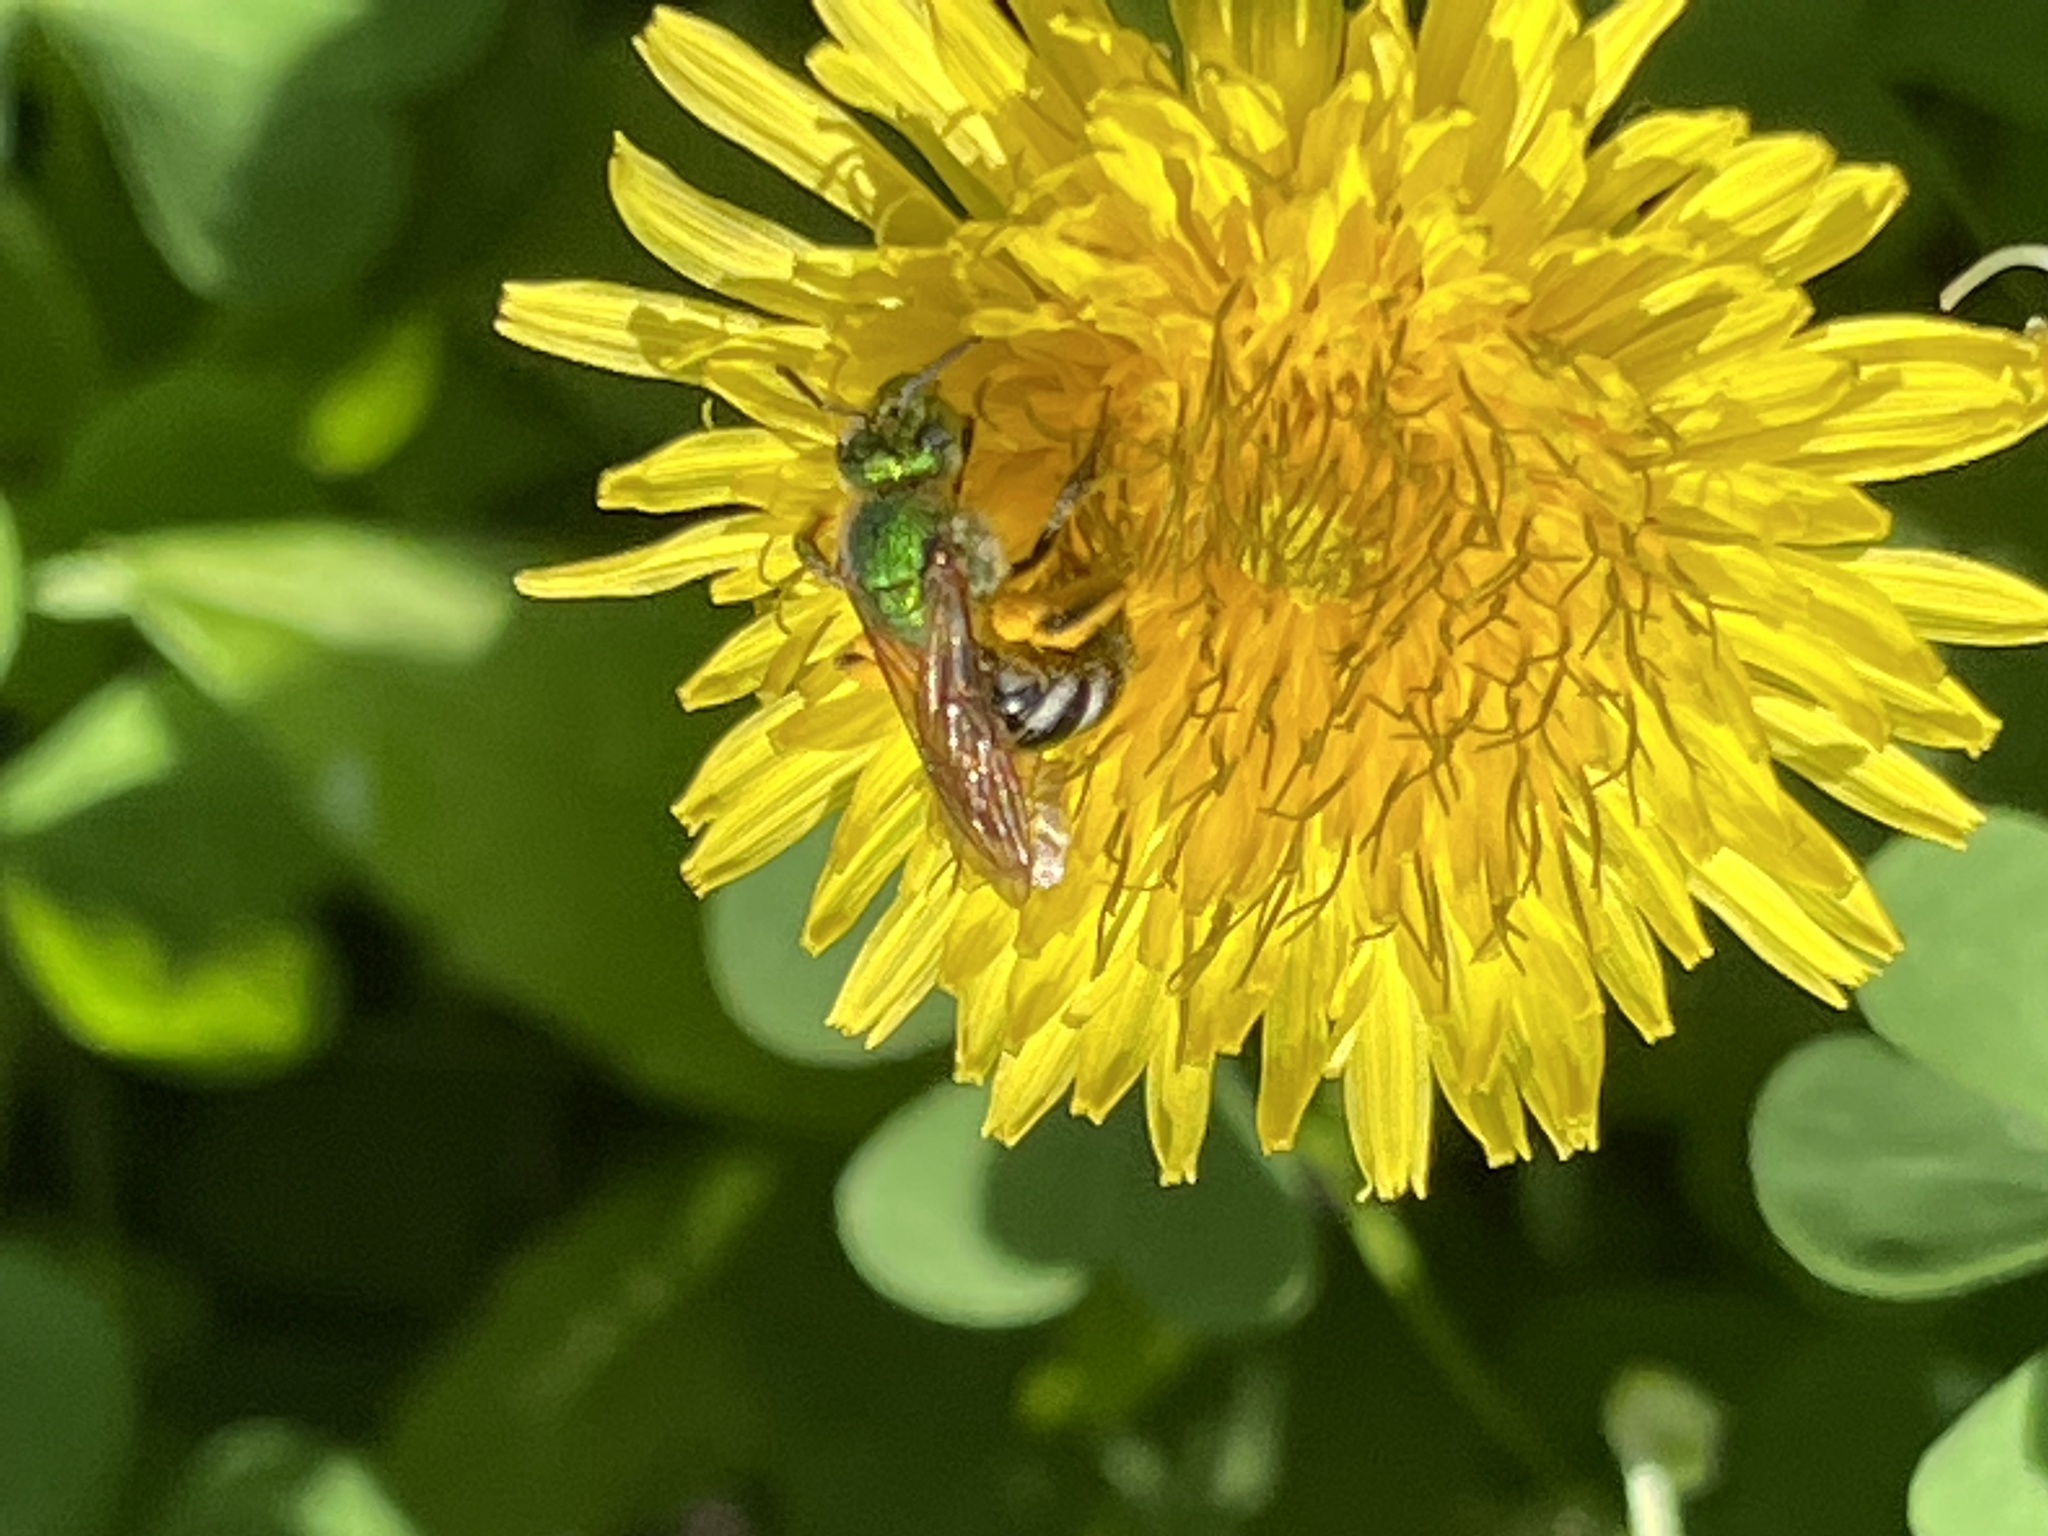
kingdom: Animalia
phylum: Arthropoda
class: Insecta
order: Hymenoptera
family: Halictidae
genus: Agapostemon
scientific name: Agapostemon virescens
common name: Bicolored striped sweat bee
